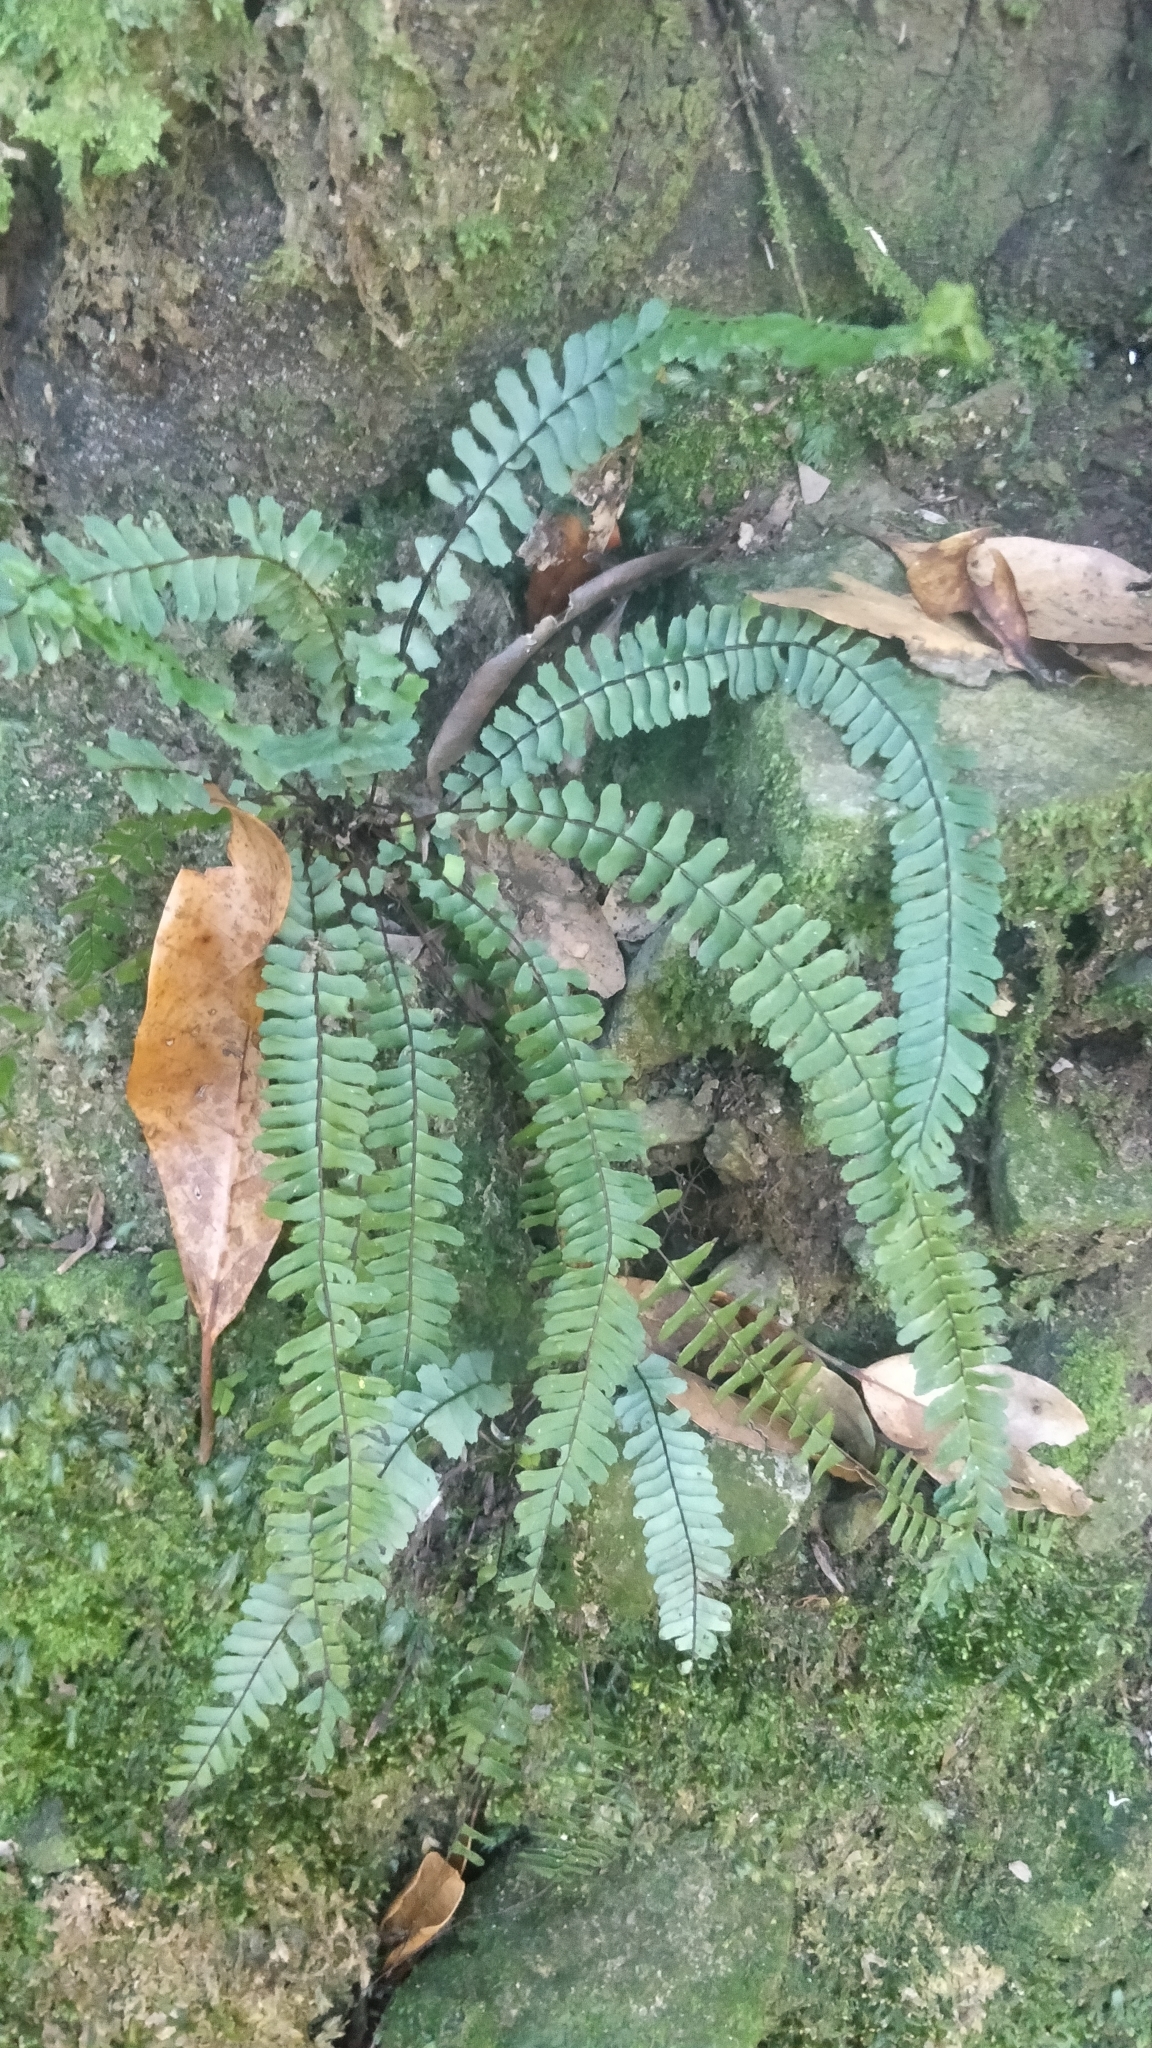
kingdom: Plantae
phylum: Tracheophyta
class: Polypodiopsida
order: Polypodiales
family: Aspleniaceae
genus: Asplenium
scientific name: Asplenium monanthes
